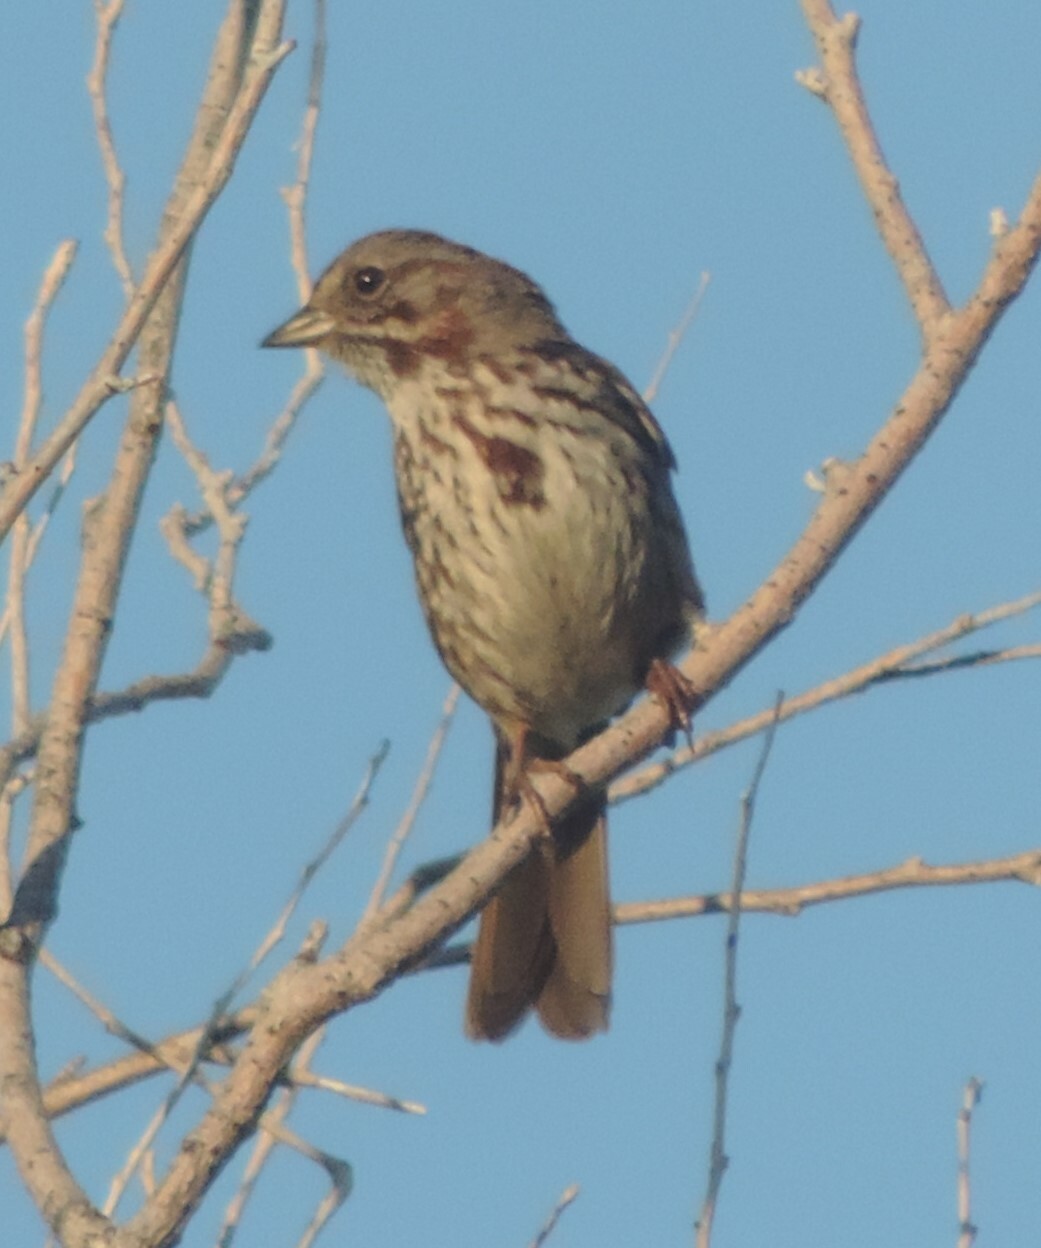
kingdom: Animalia
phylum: Chordata
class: Aves
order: Passeriformes
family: Passerellidae
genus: Melospiza
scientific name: Melospiza melodia
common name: Song sparrow
